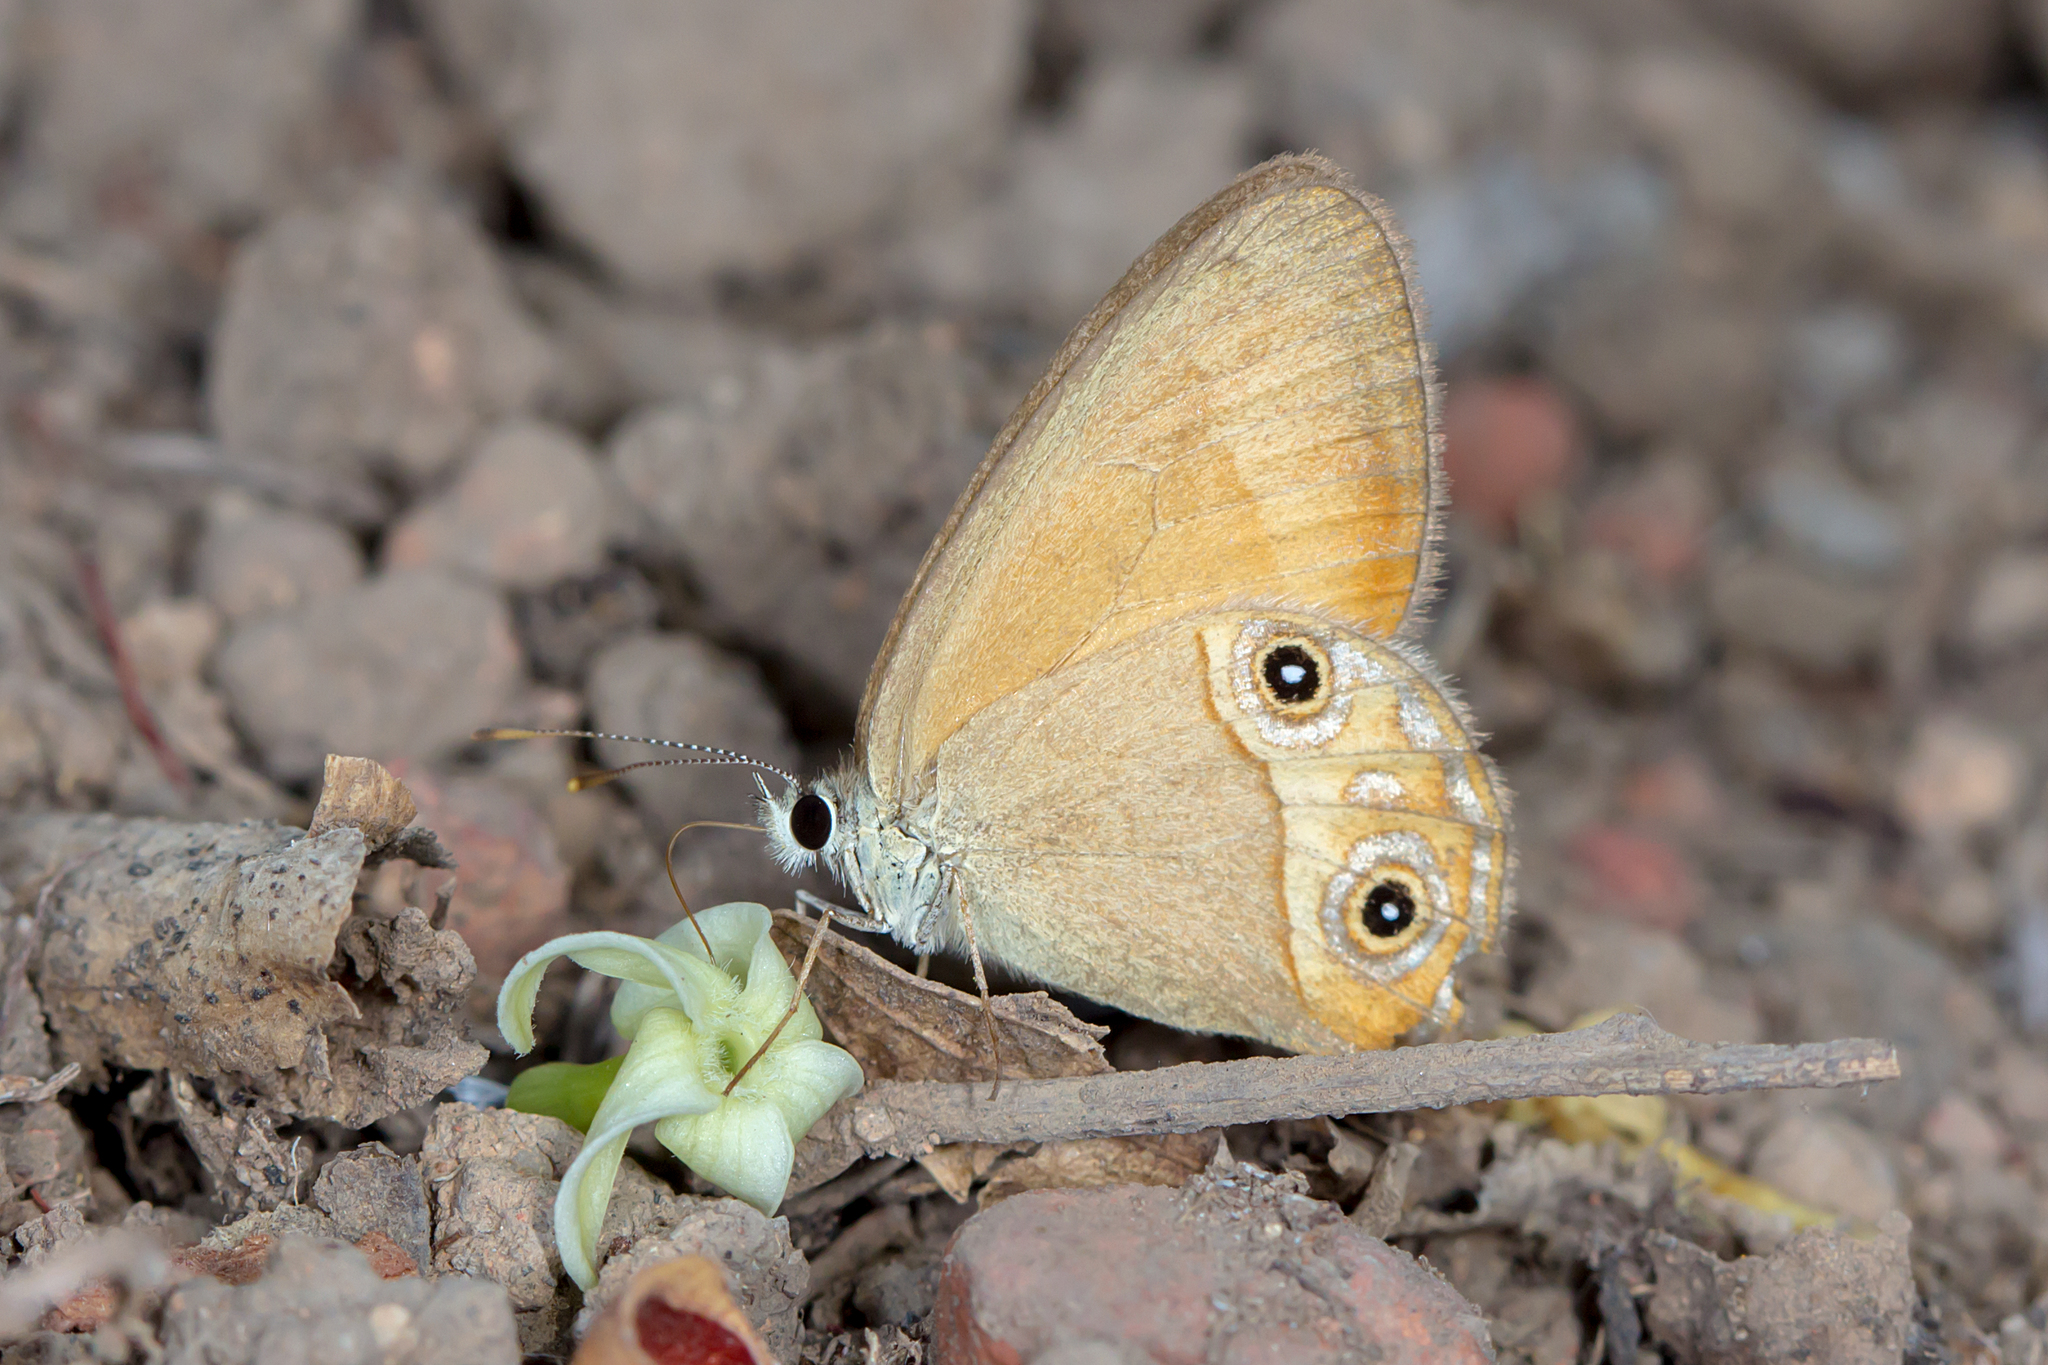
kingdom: Animalia
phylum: Arthropoda
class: Insecta
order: Lepidoptera
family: Nymphalidae
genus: Hypocysta
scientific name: Hypocysta adiante
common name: Orange ringlet
